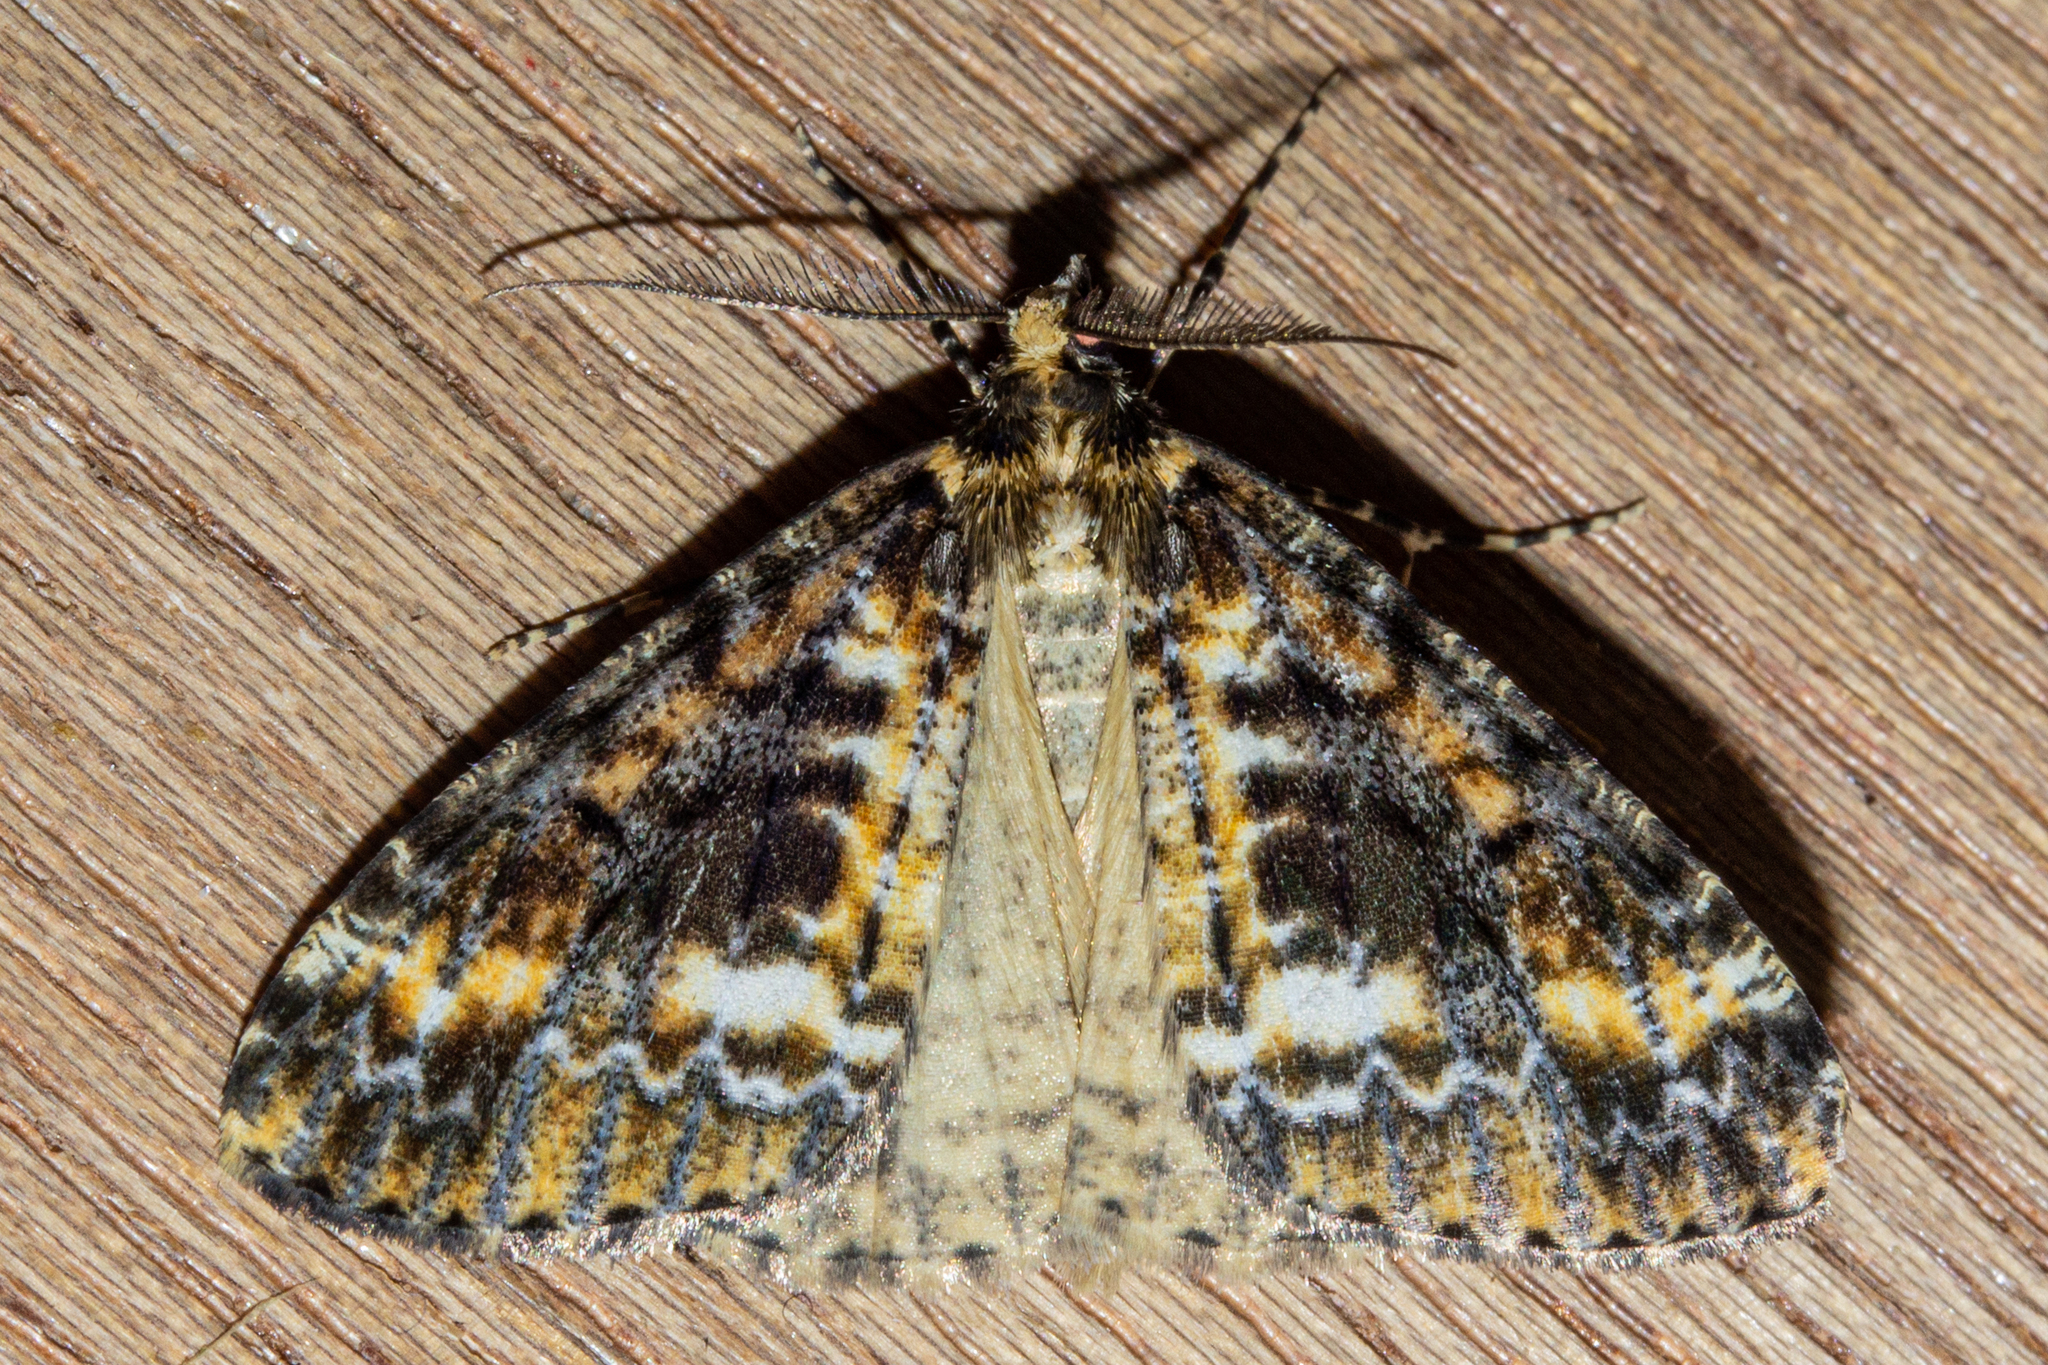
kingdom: Animalia
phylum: Arthropoda
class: Insecta
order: Lepidoptera
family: Geometridae
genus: Pseudocoremia
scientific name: Pseudocoremia leucelaea
